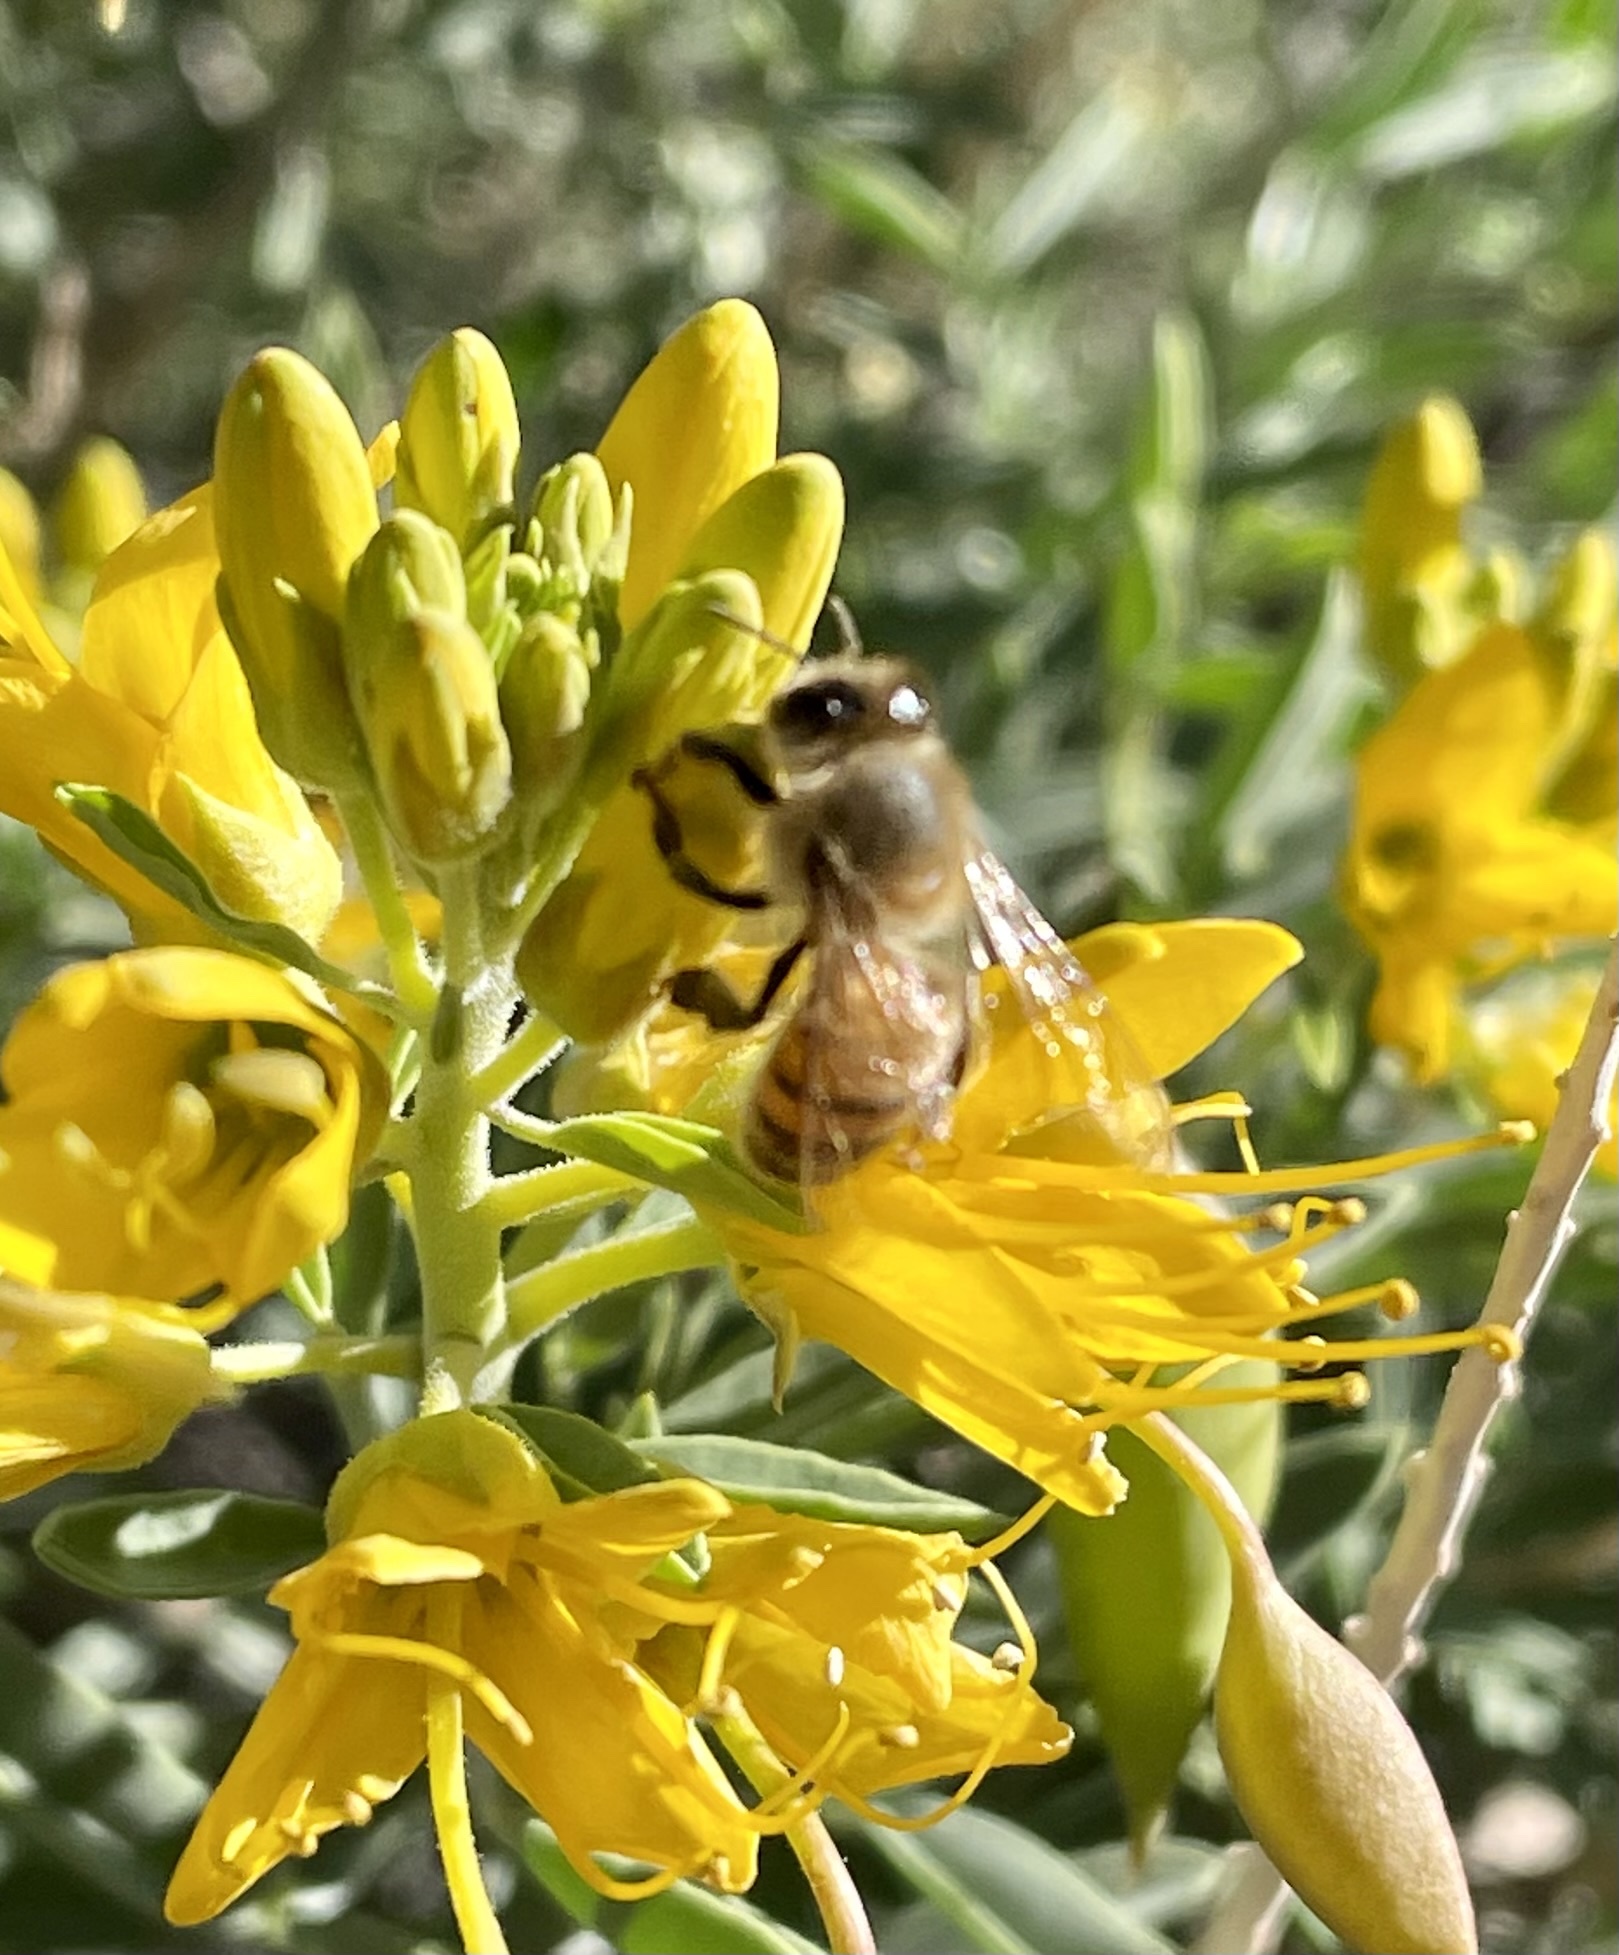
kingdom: Animalia
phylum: Arthropoda
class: Insecta
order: Hymenoptera
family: Apidae
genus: Apis
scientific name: Apis mellifera
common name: Honey bee
